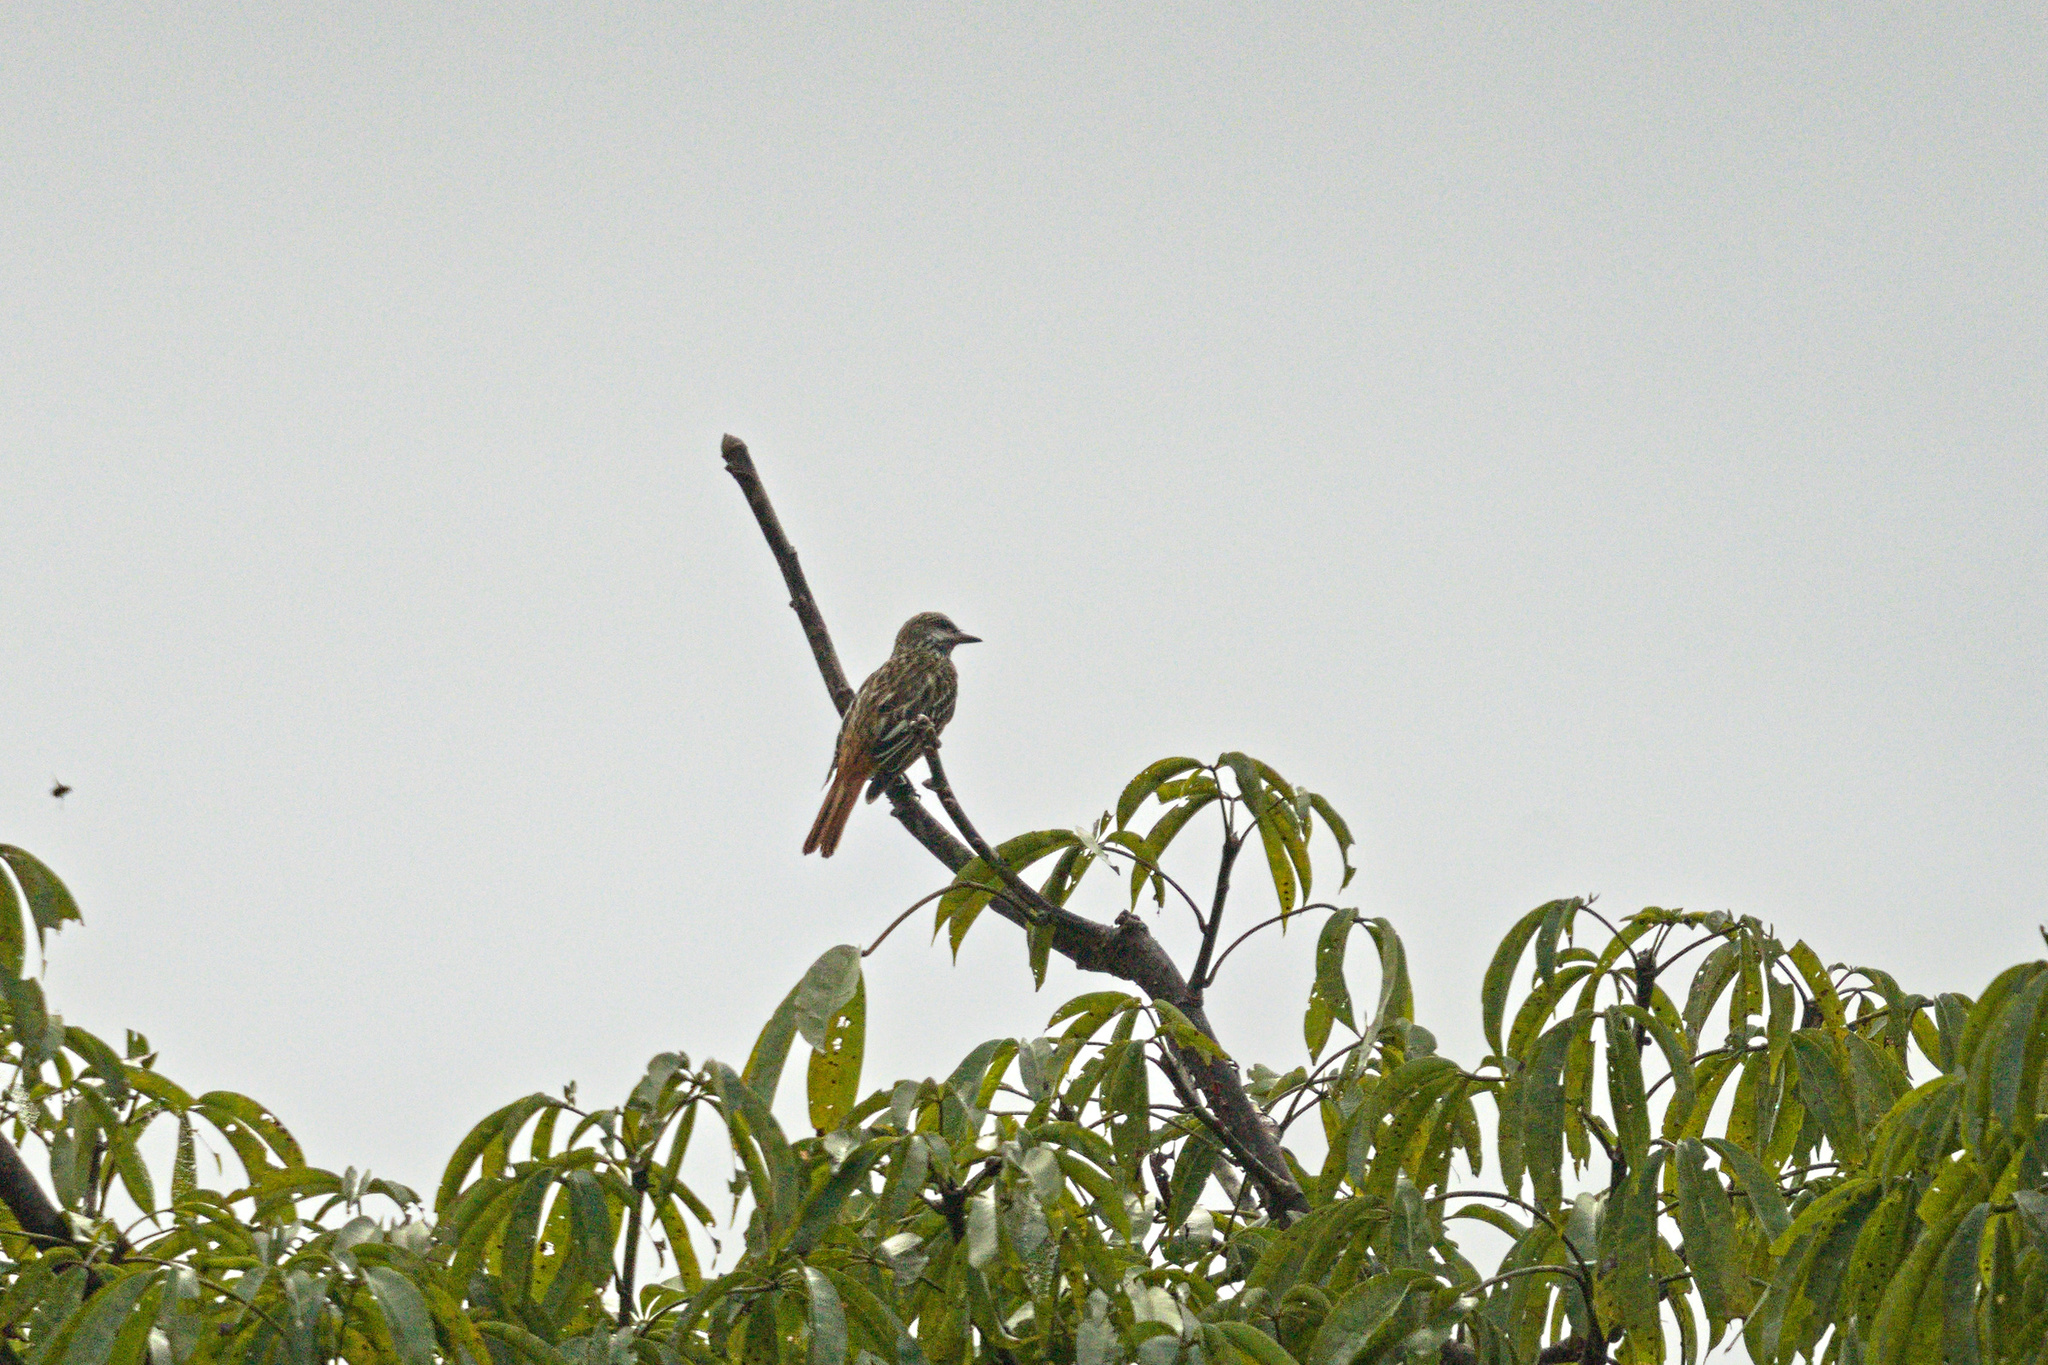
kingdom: Animalia
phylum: Chordata
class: Aves
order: Passeriformes
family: Tyrannidae
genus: Myiodynastes
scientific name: Myiodynastes luteiventris
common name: Sulphur-bellied flycatcher
